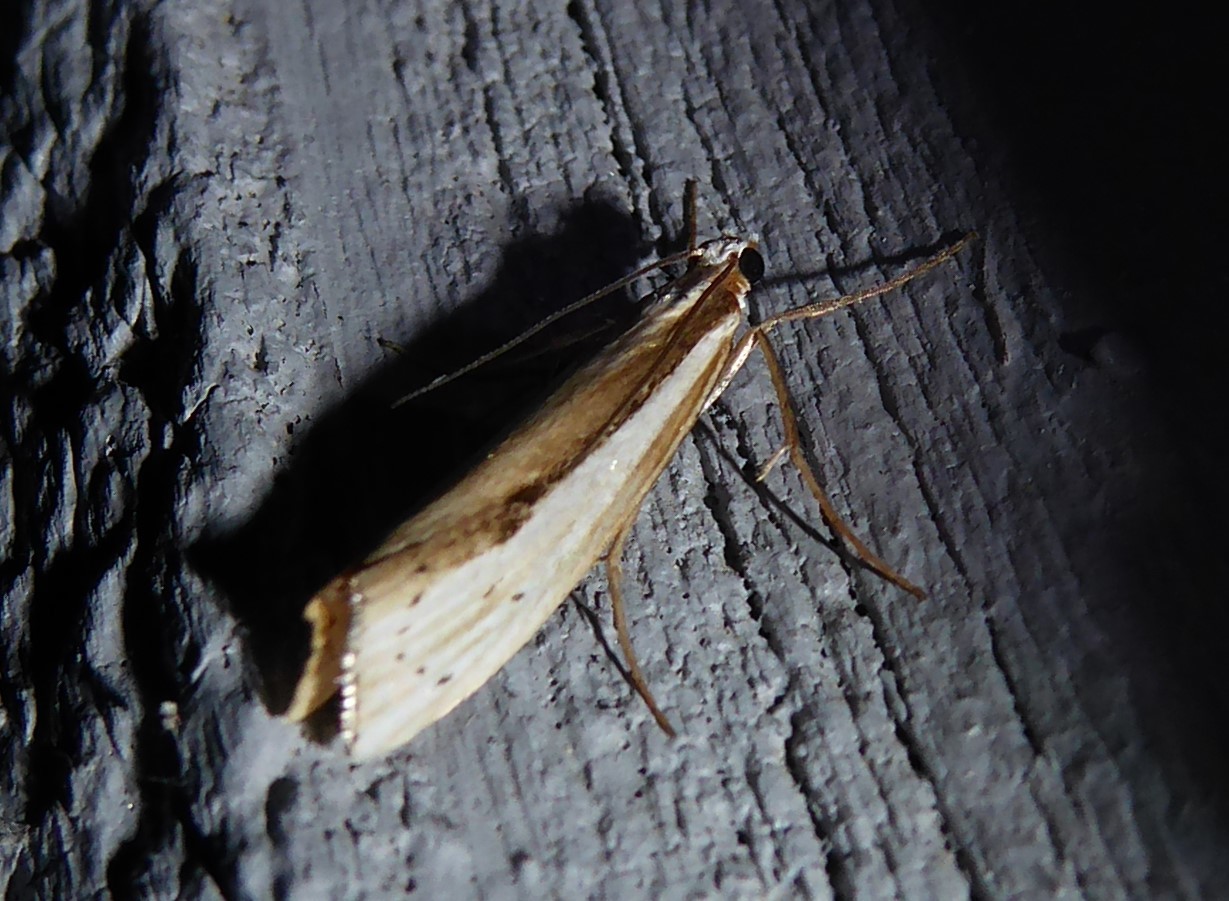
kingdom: Animalia
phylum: Arthropoda
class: Insecta
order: Lepidoptera
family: Crambidae
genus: Orocrambus
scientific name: Orocrambus ramosellus
